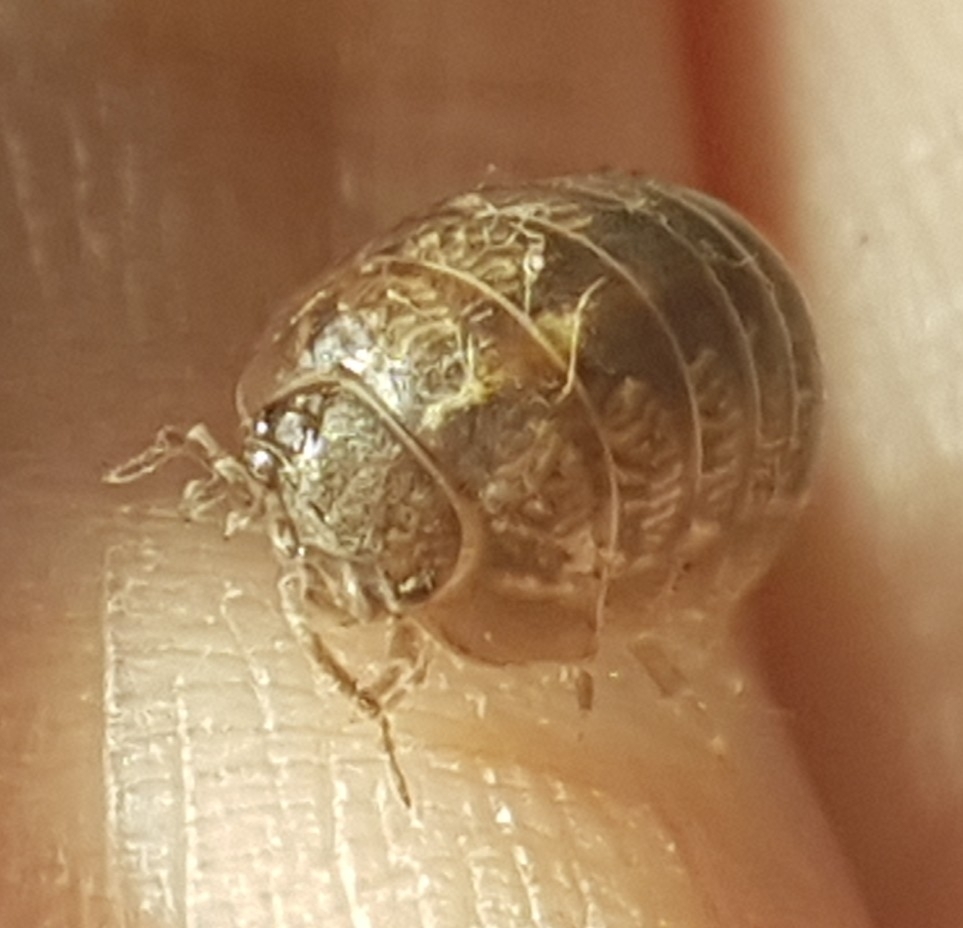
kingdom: Animalia
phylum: Arthropoda
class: Malacostraca
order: Isopoda
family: Armadillidiidae
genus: Armadillidium
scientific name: Armadillidium vulgare
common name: Common pill woodlouse
